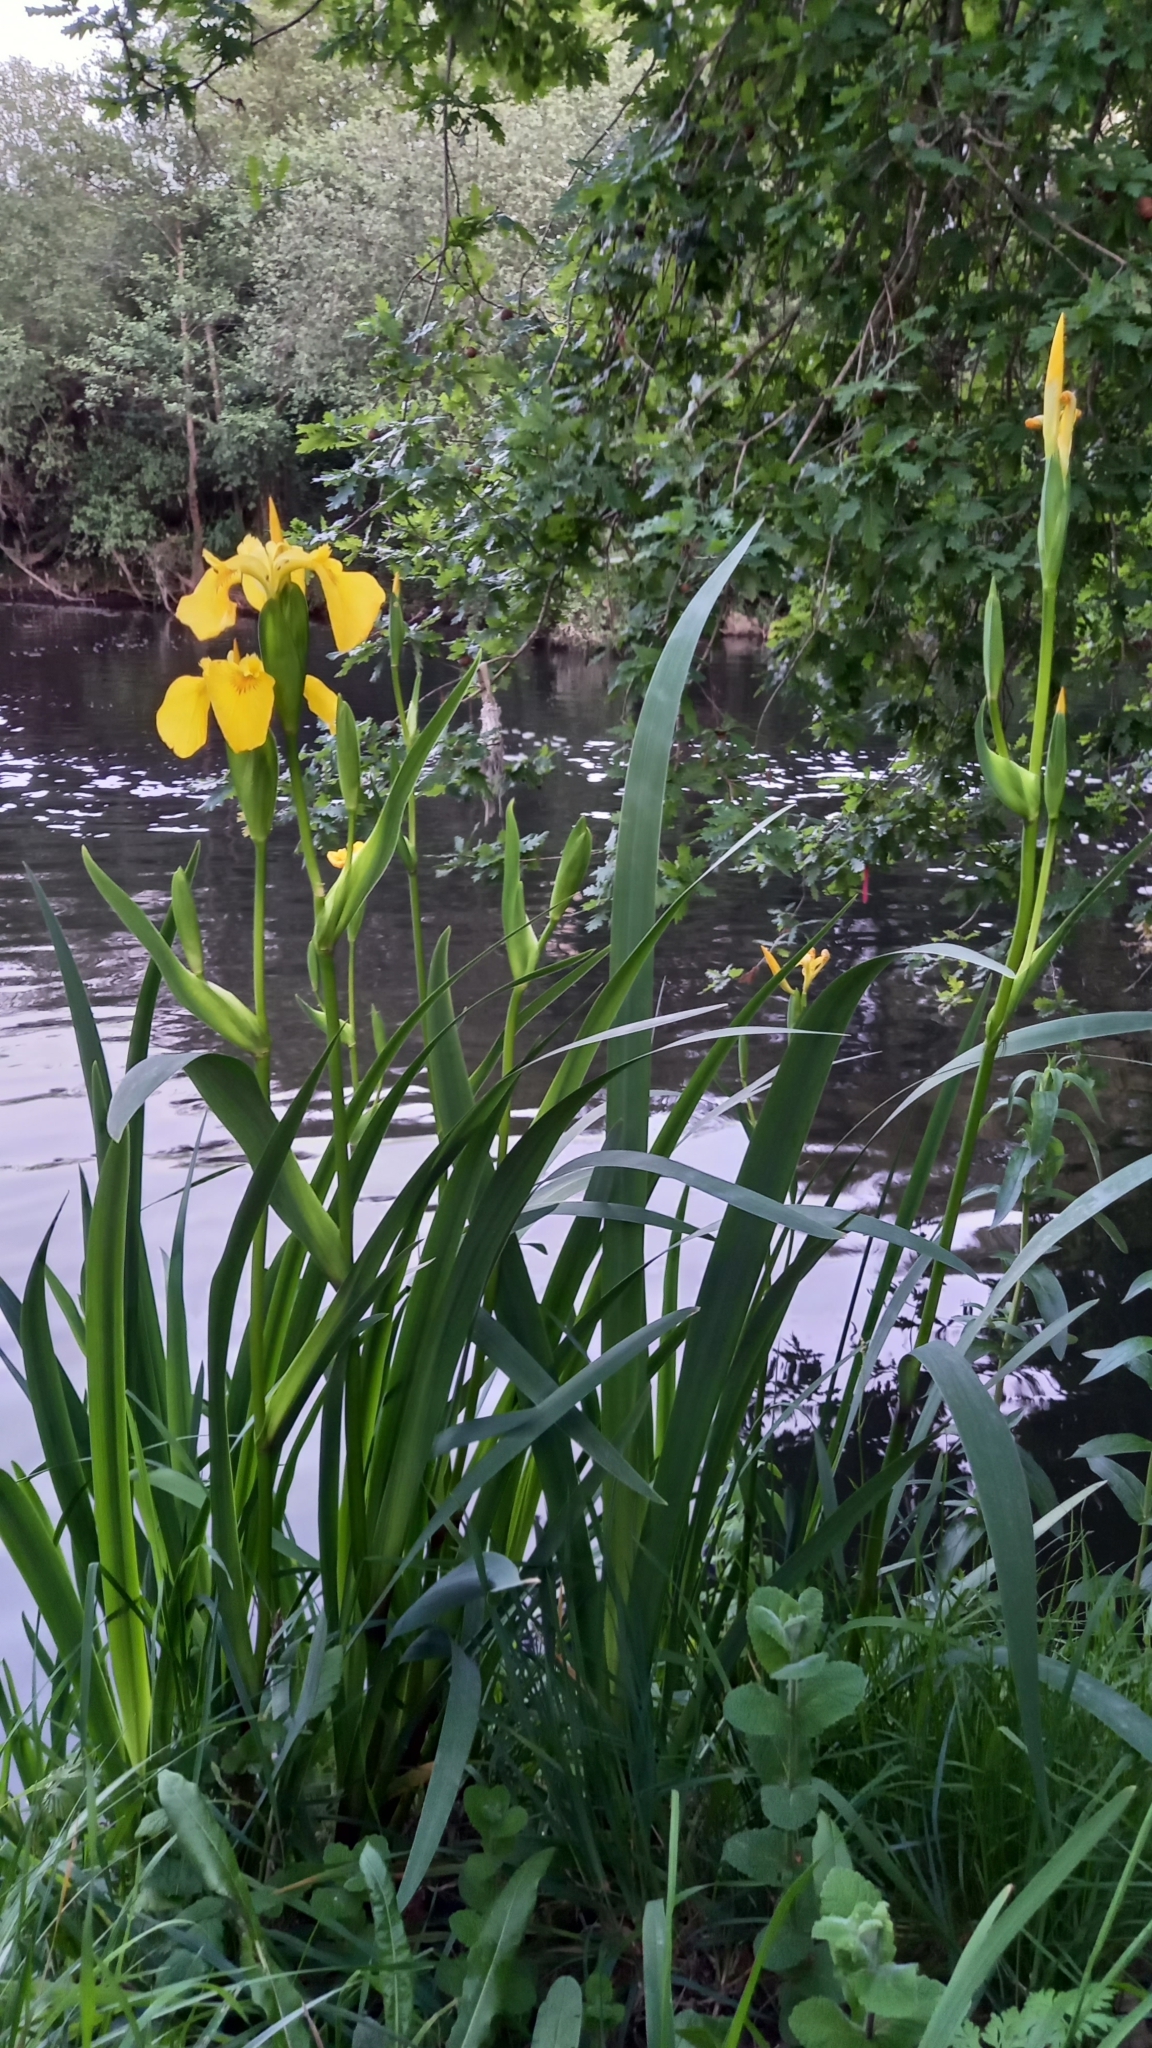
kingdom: Plantae
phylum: Tracheophyta
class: Liliopsida
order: Asparagales
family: Iridaceae
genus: Iris
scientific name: Iris pseudacorus
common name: Yellow flag
